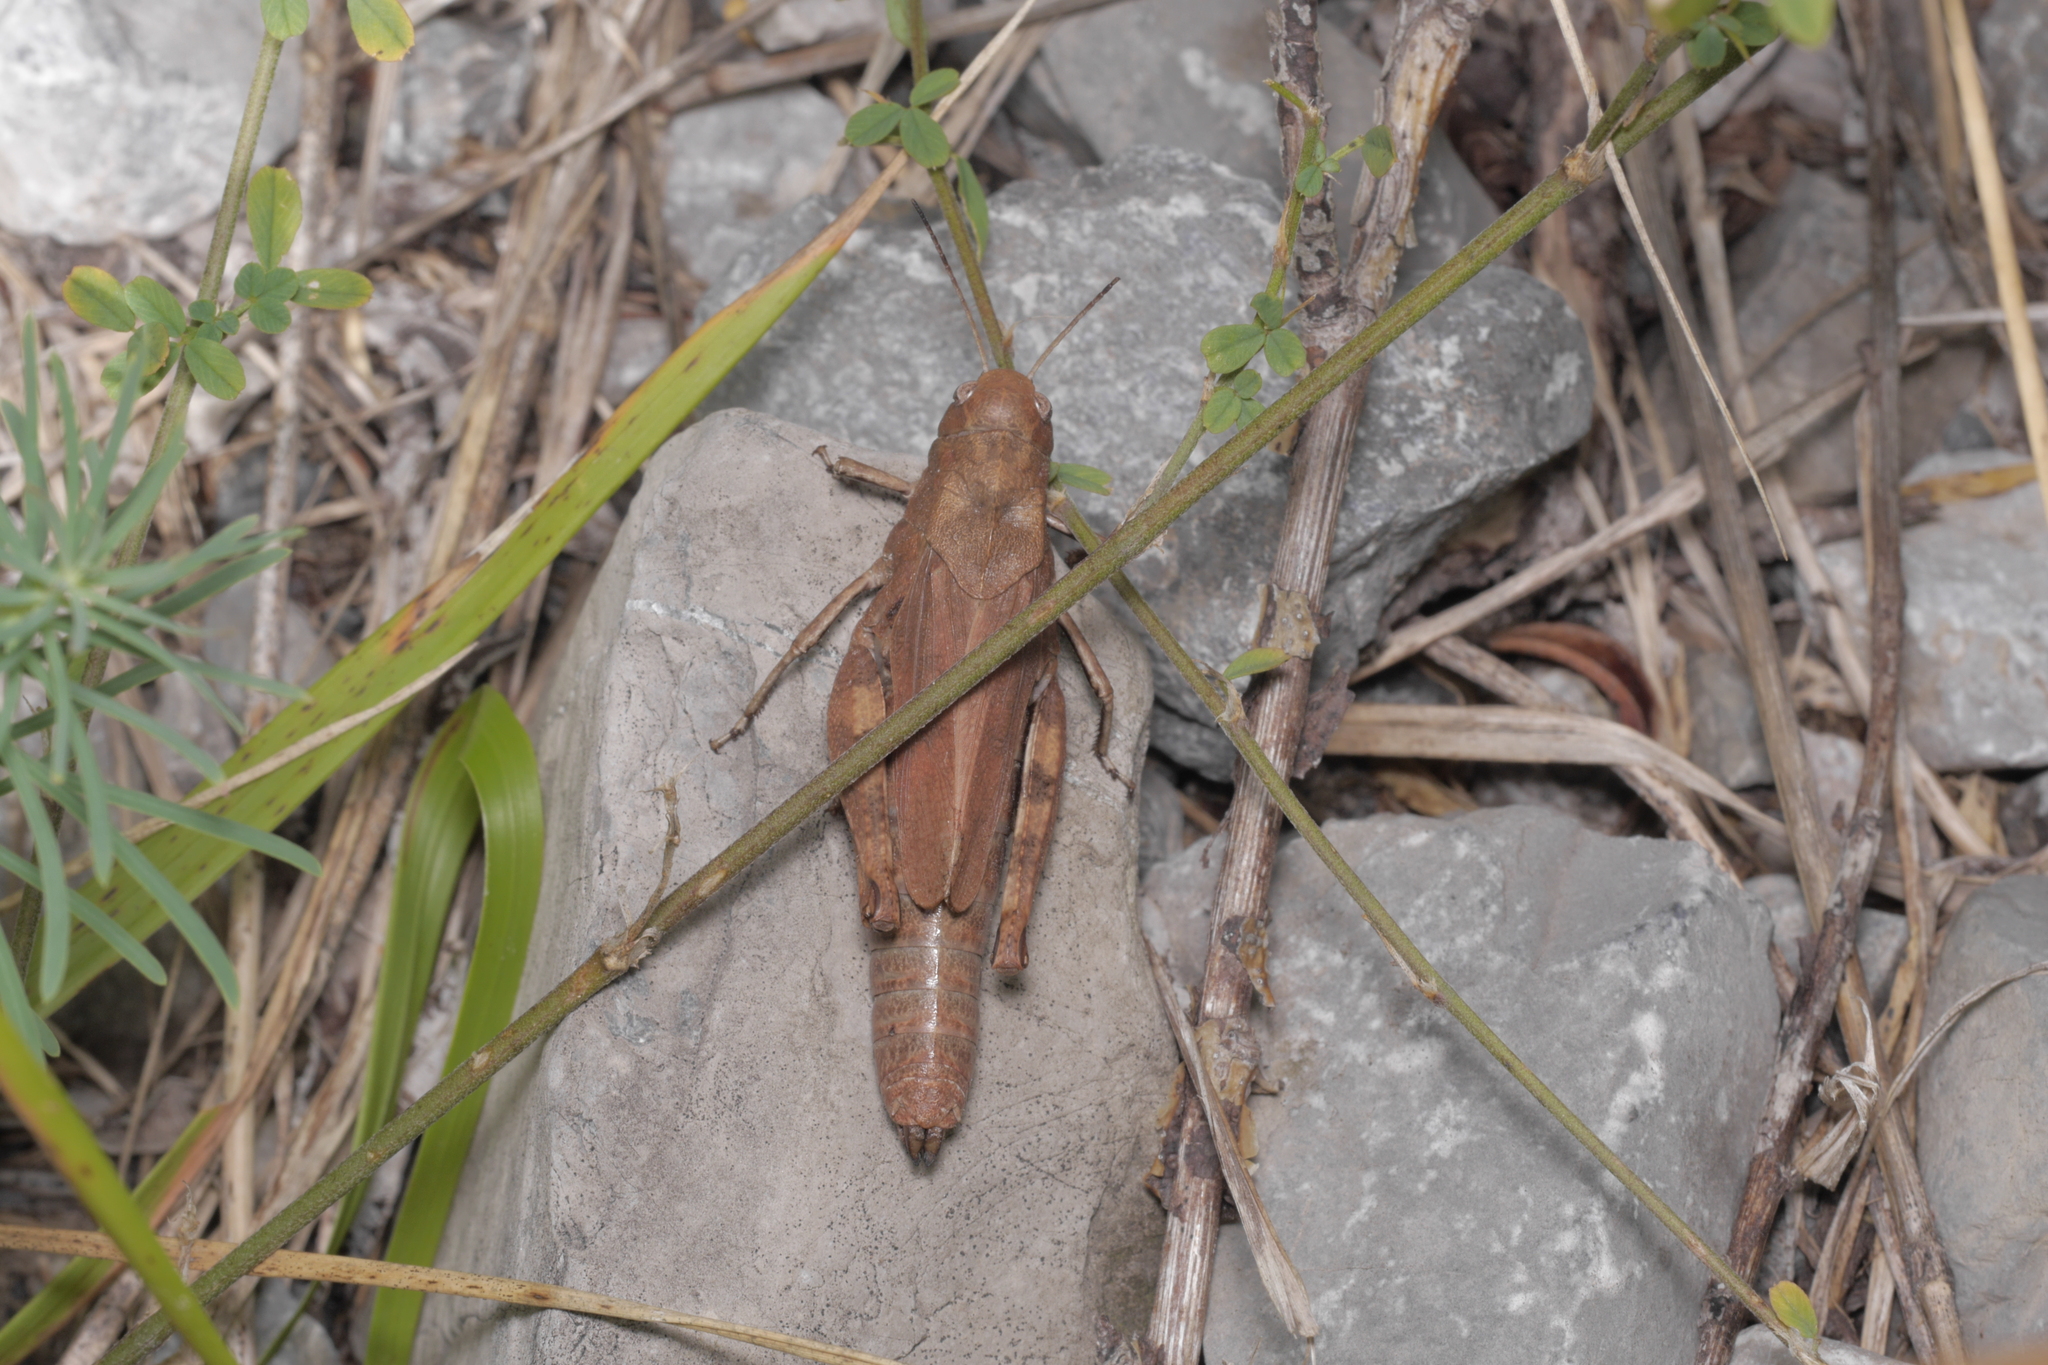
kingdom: Animalia
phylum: Arthropoda
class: Insecta
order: Orthoptera
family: Acrididae
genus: Psophus
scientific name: Psophus stridulus
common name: Rattle grasshopper
